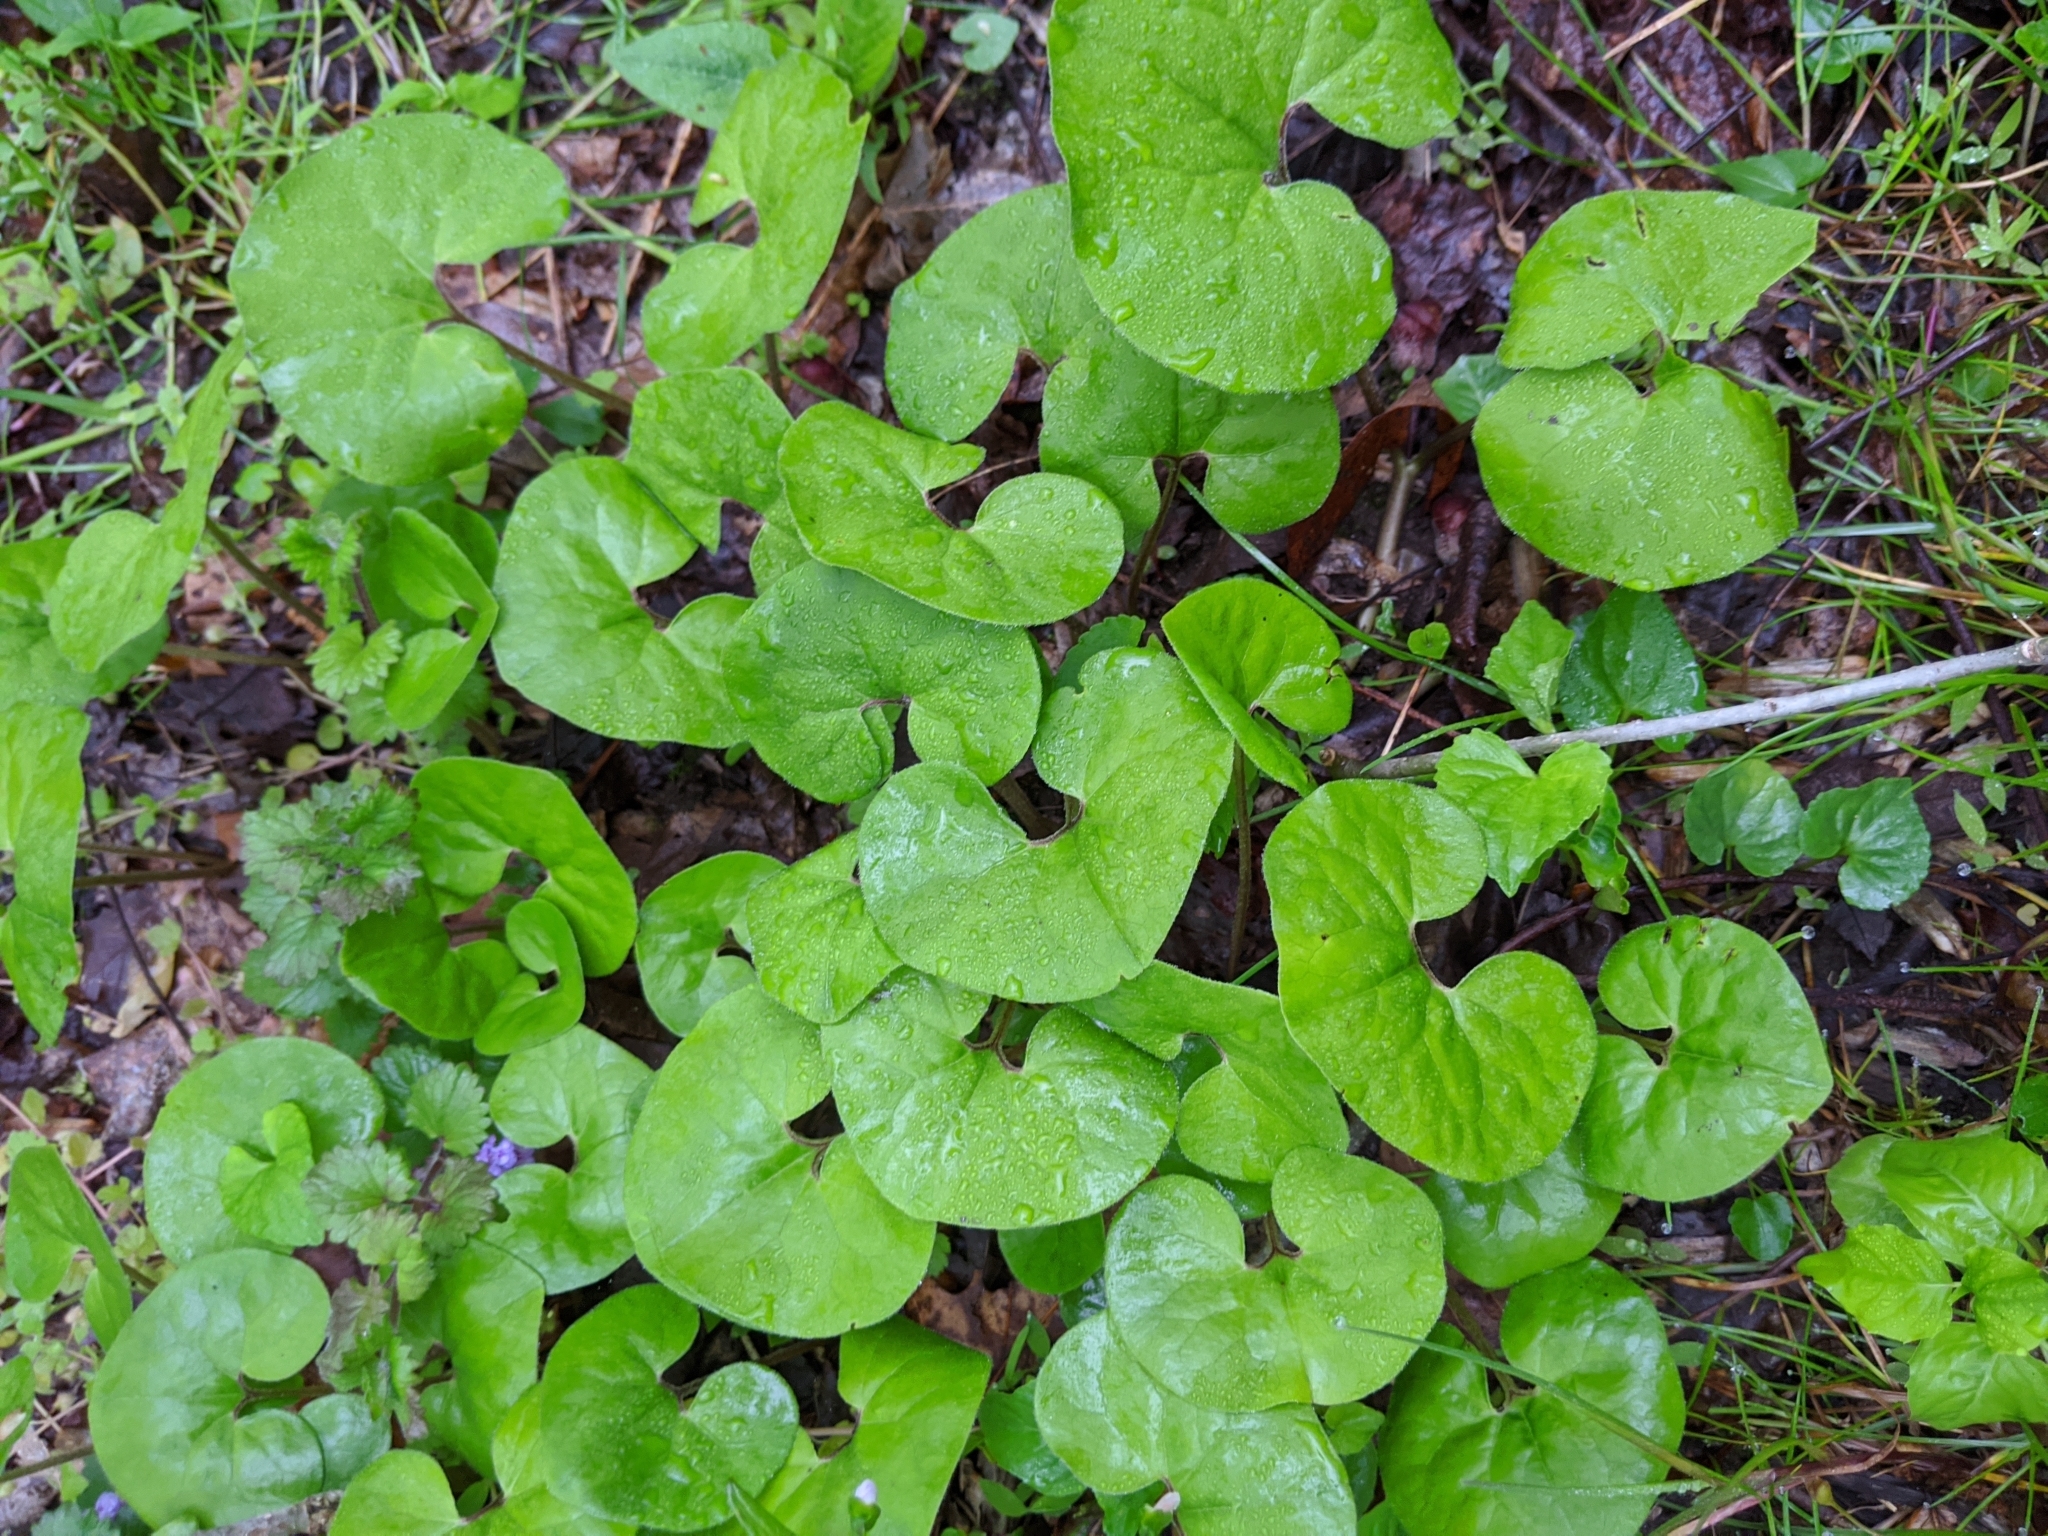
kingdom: Plantae
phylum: Tracheophyta
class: Magnoliopsida
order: Piperales
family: Aristolochiaceae
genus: Asarum
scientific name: Asarum canadense
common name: Wild ginger
